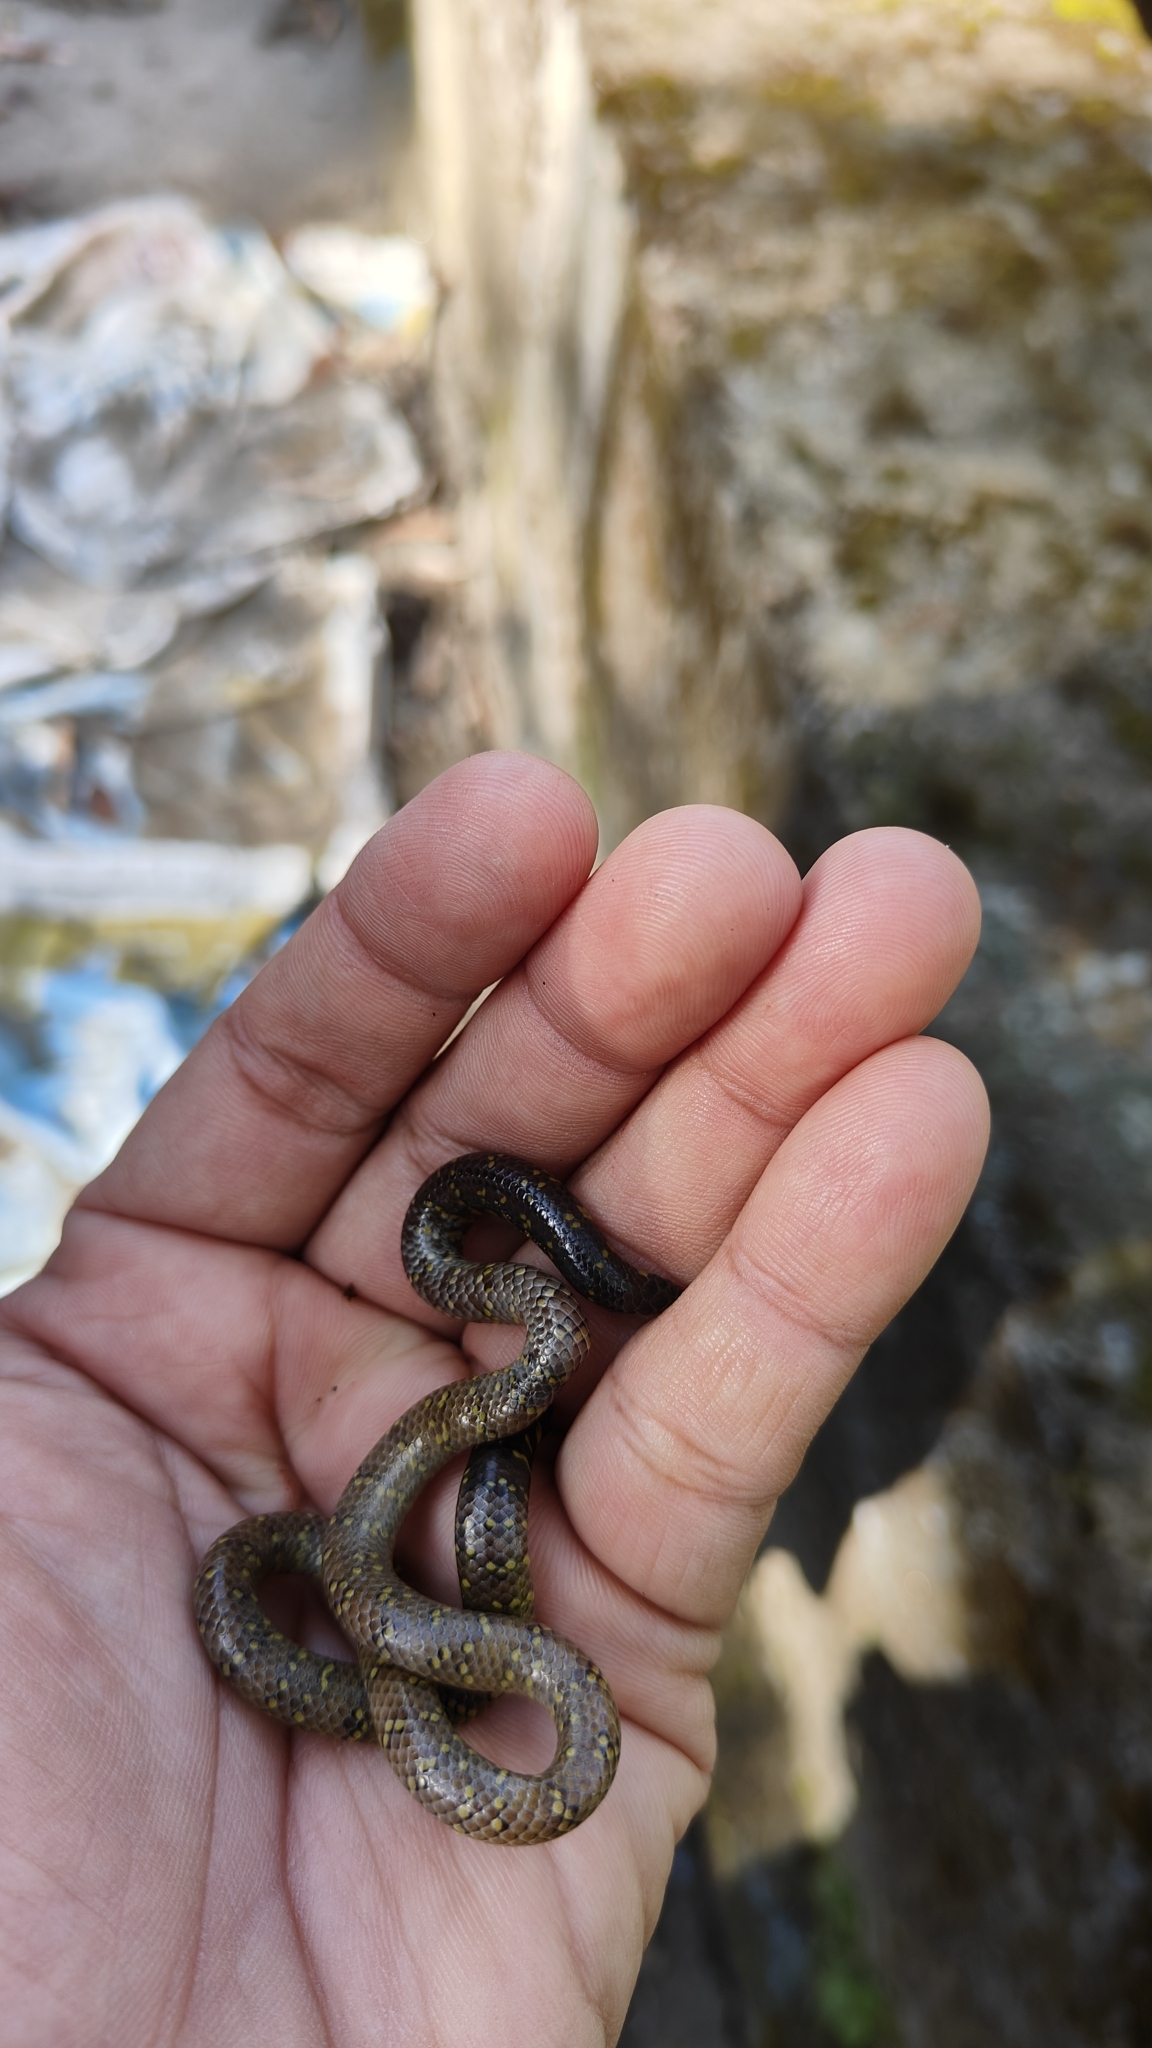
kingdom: Animalia
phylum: Chordata
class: Squamata
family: Uropeltidae
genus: Uropeltis
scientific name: Uropeltis ocellata
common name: Ocellated earth snake
